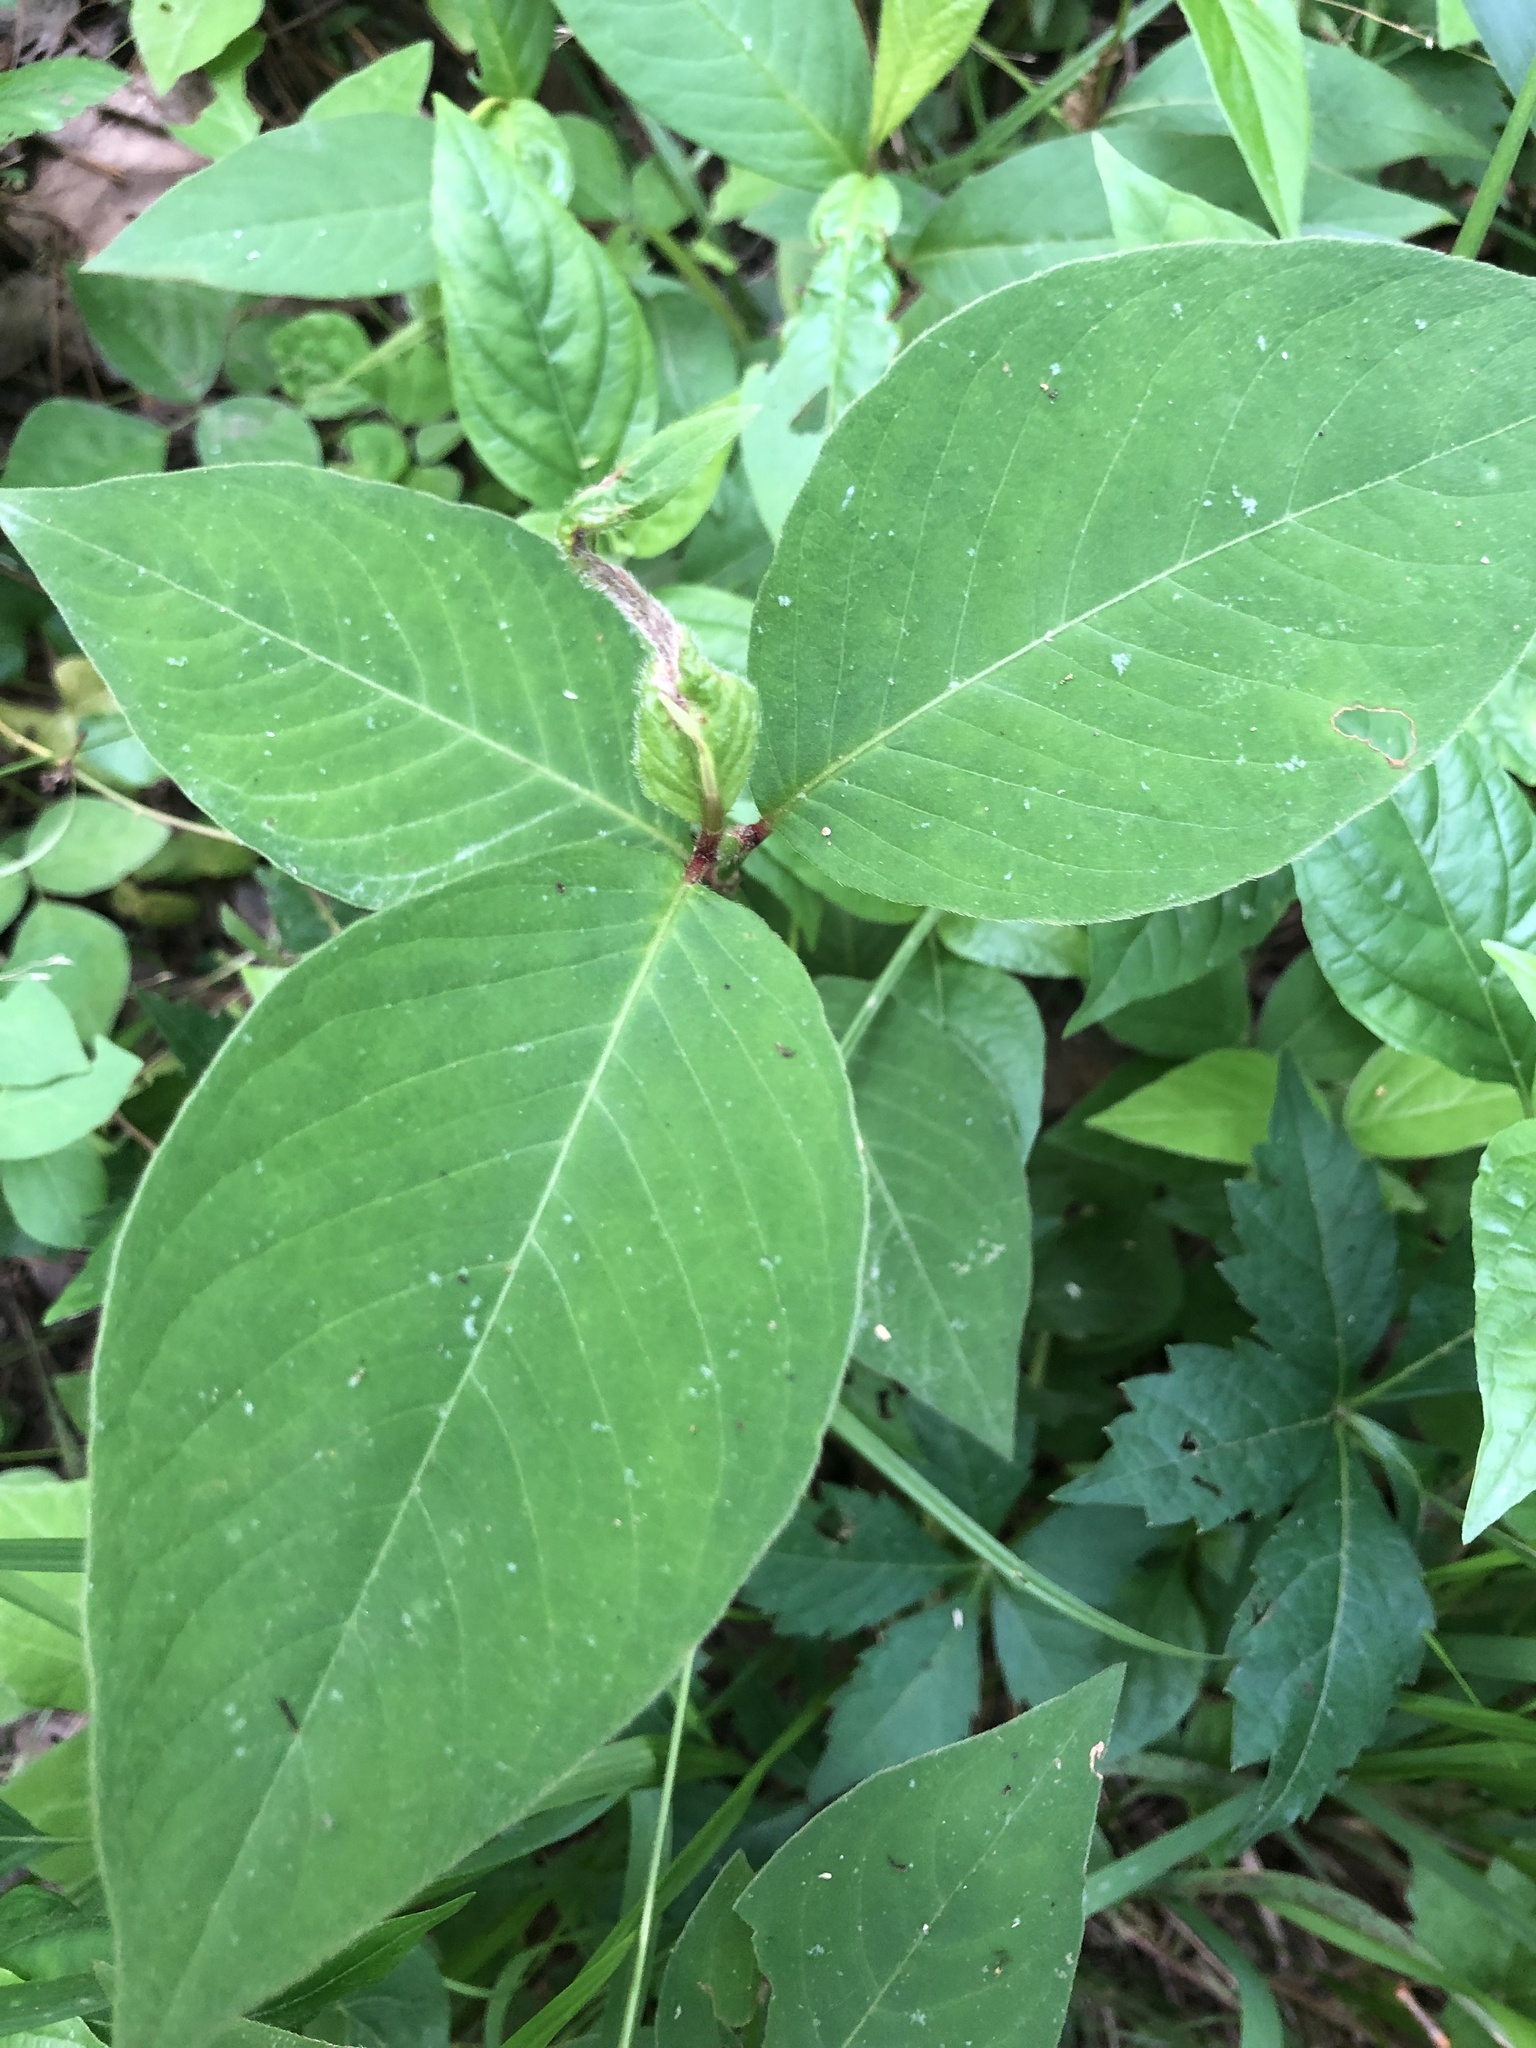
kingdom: Plantae
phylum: Tracheophyta
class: Magnoliopsida
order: Caryophyllales
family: Polygonaceae
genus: Persicaria
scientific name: Persicaria virginiana
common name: Jumpseed
